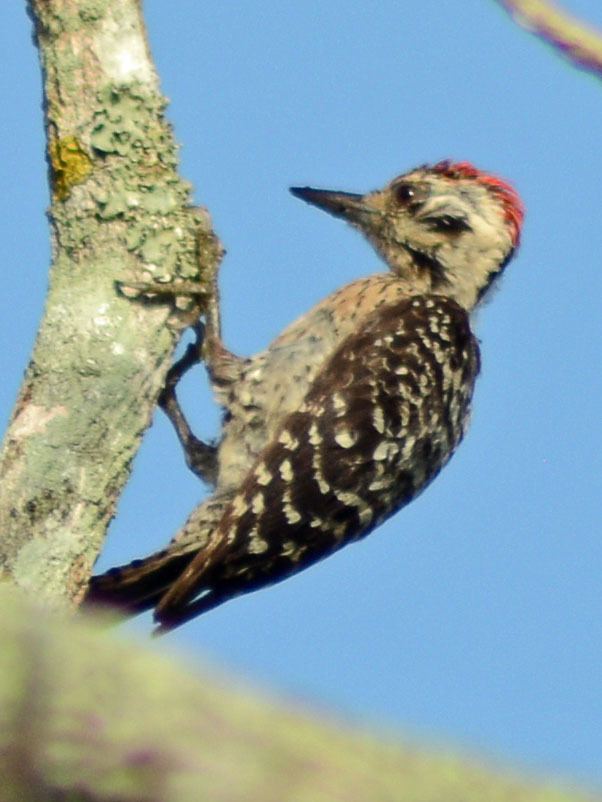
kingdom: Animalia
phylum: Chordata
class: Aves
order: Piciformes
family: Picidae
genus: Dryobates
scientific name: Dryobates scalaris
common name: Ladder-backed woodpecker
